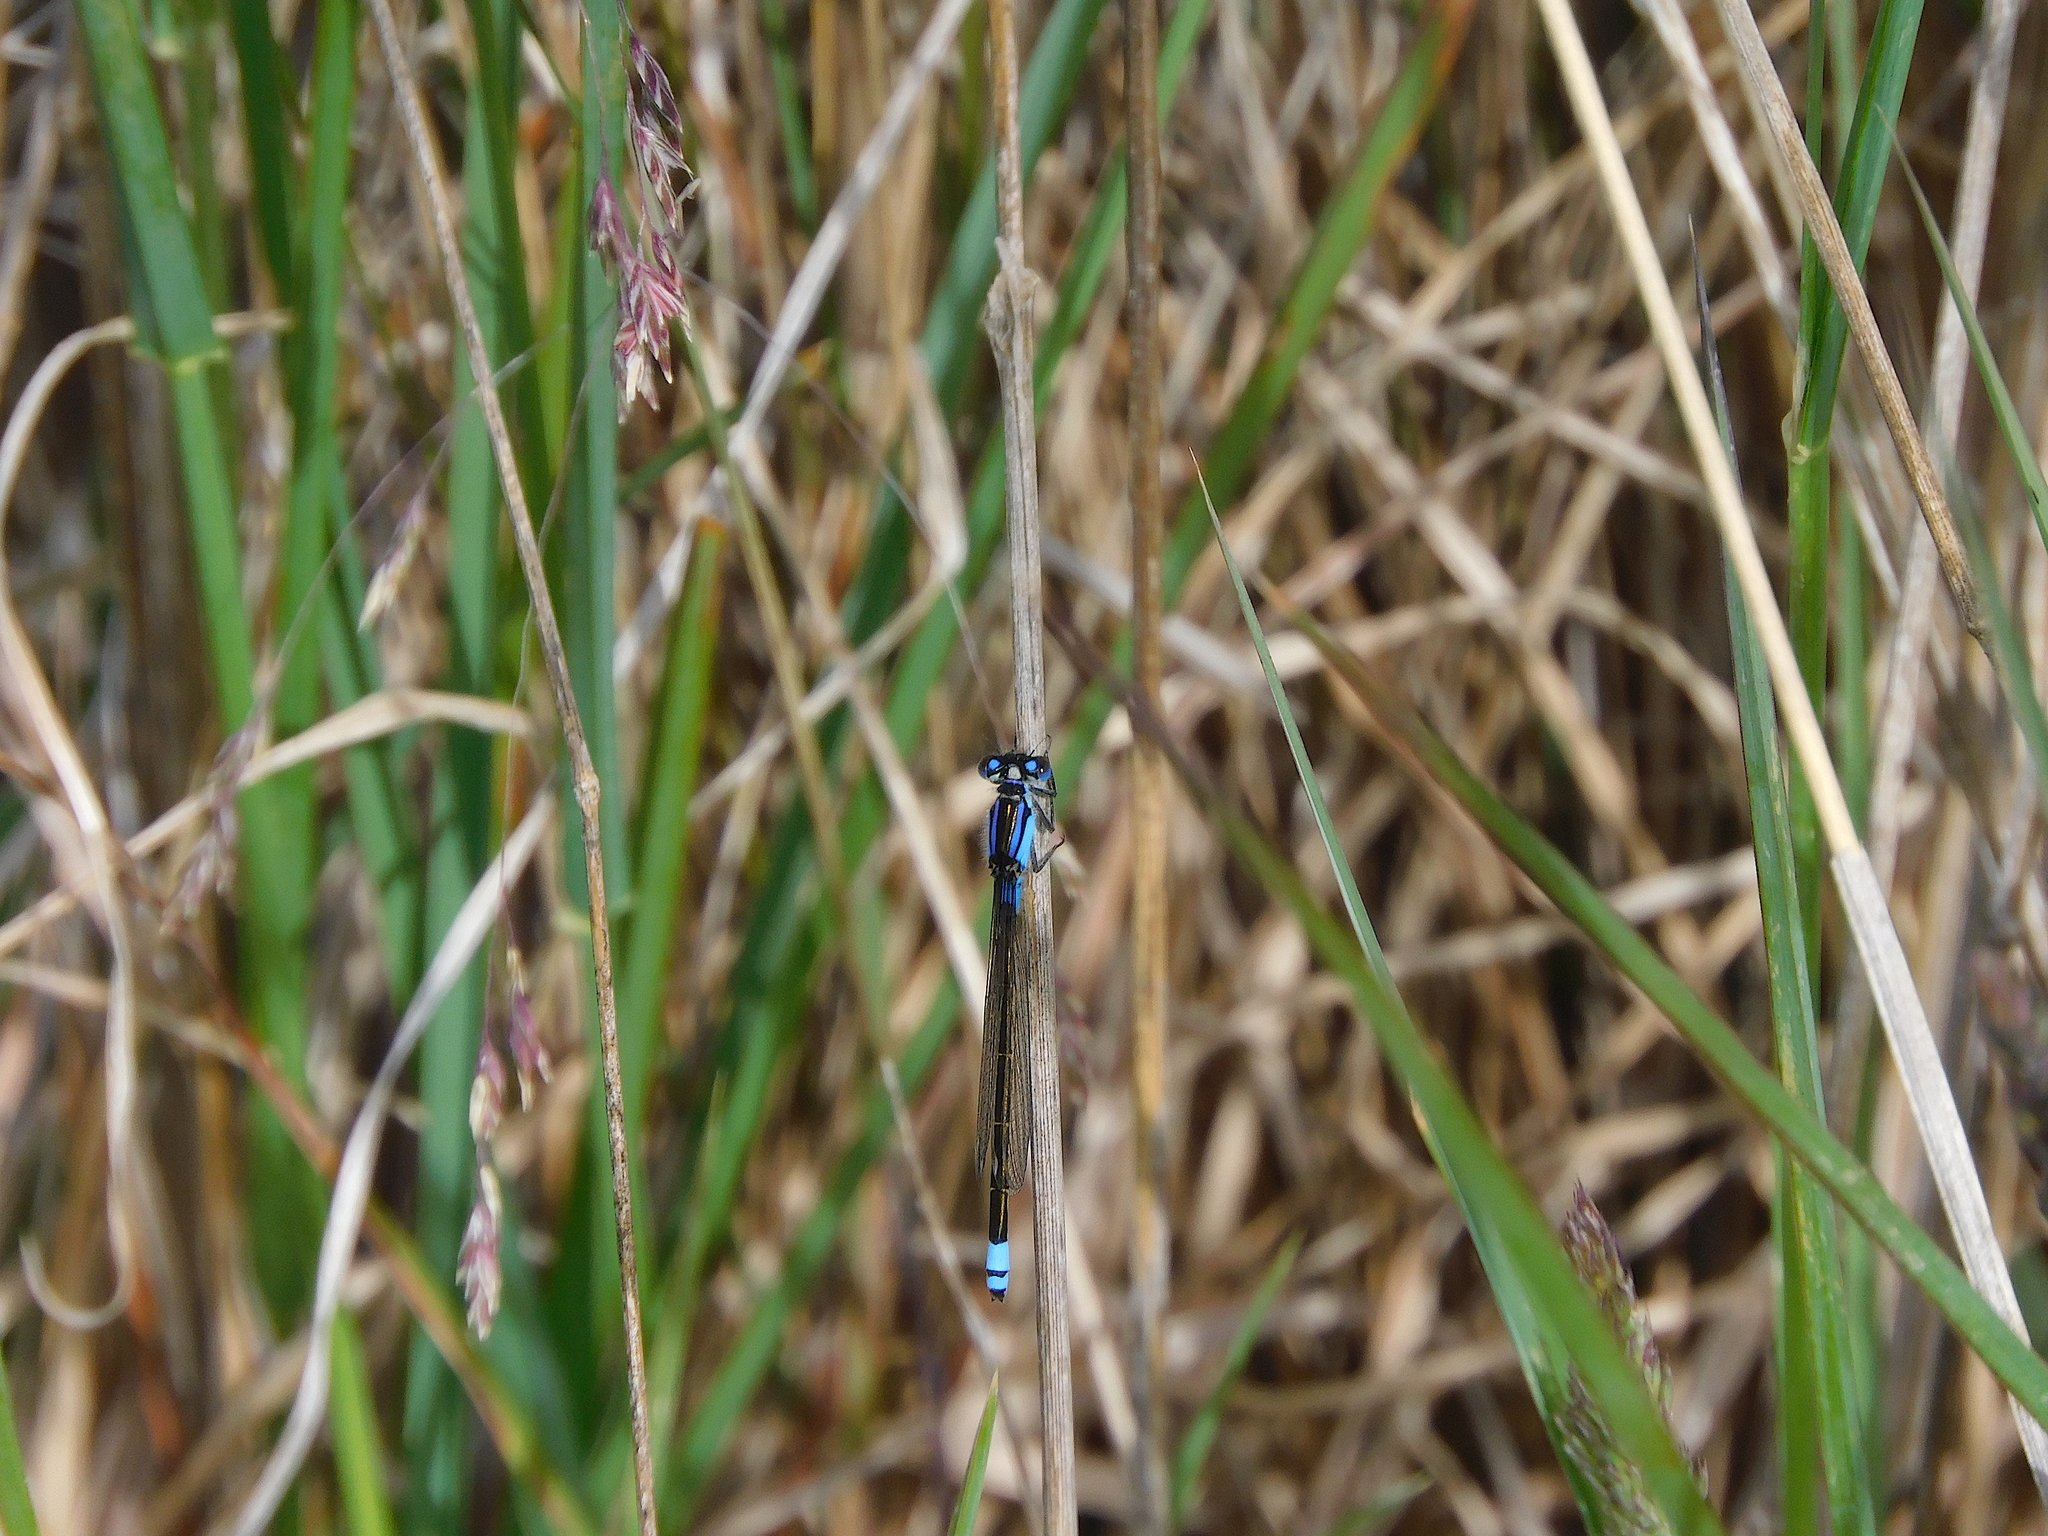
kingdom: Animalia
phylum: Arthropoda
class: Insecta
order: Odonata
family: Coenagrionidae
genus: Ischnura
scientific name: Ischnura heterosticta
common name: Common bluetail
